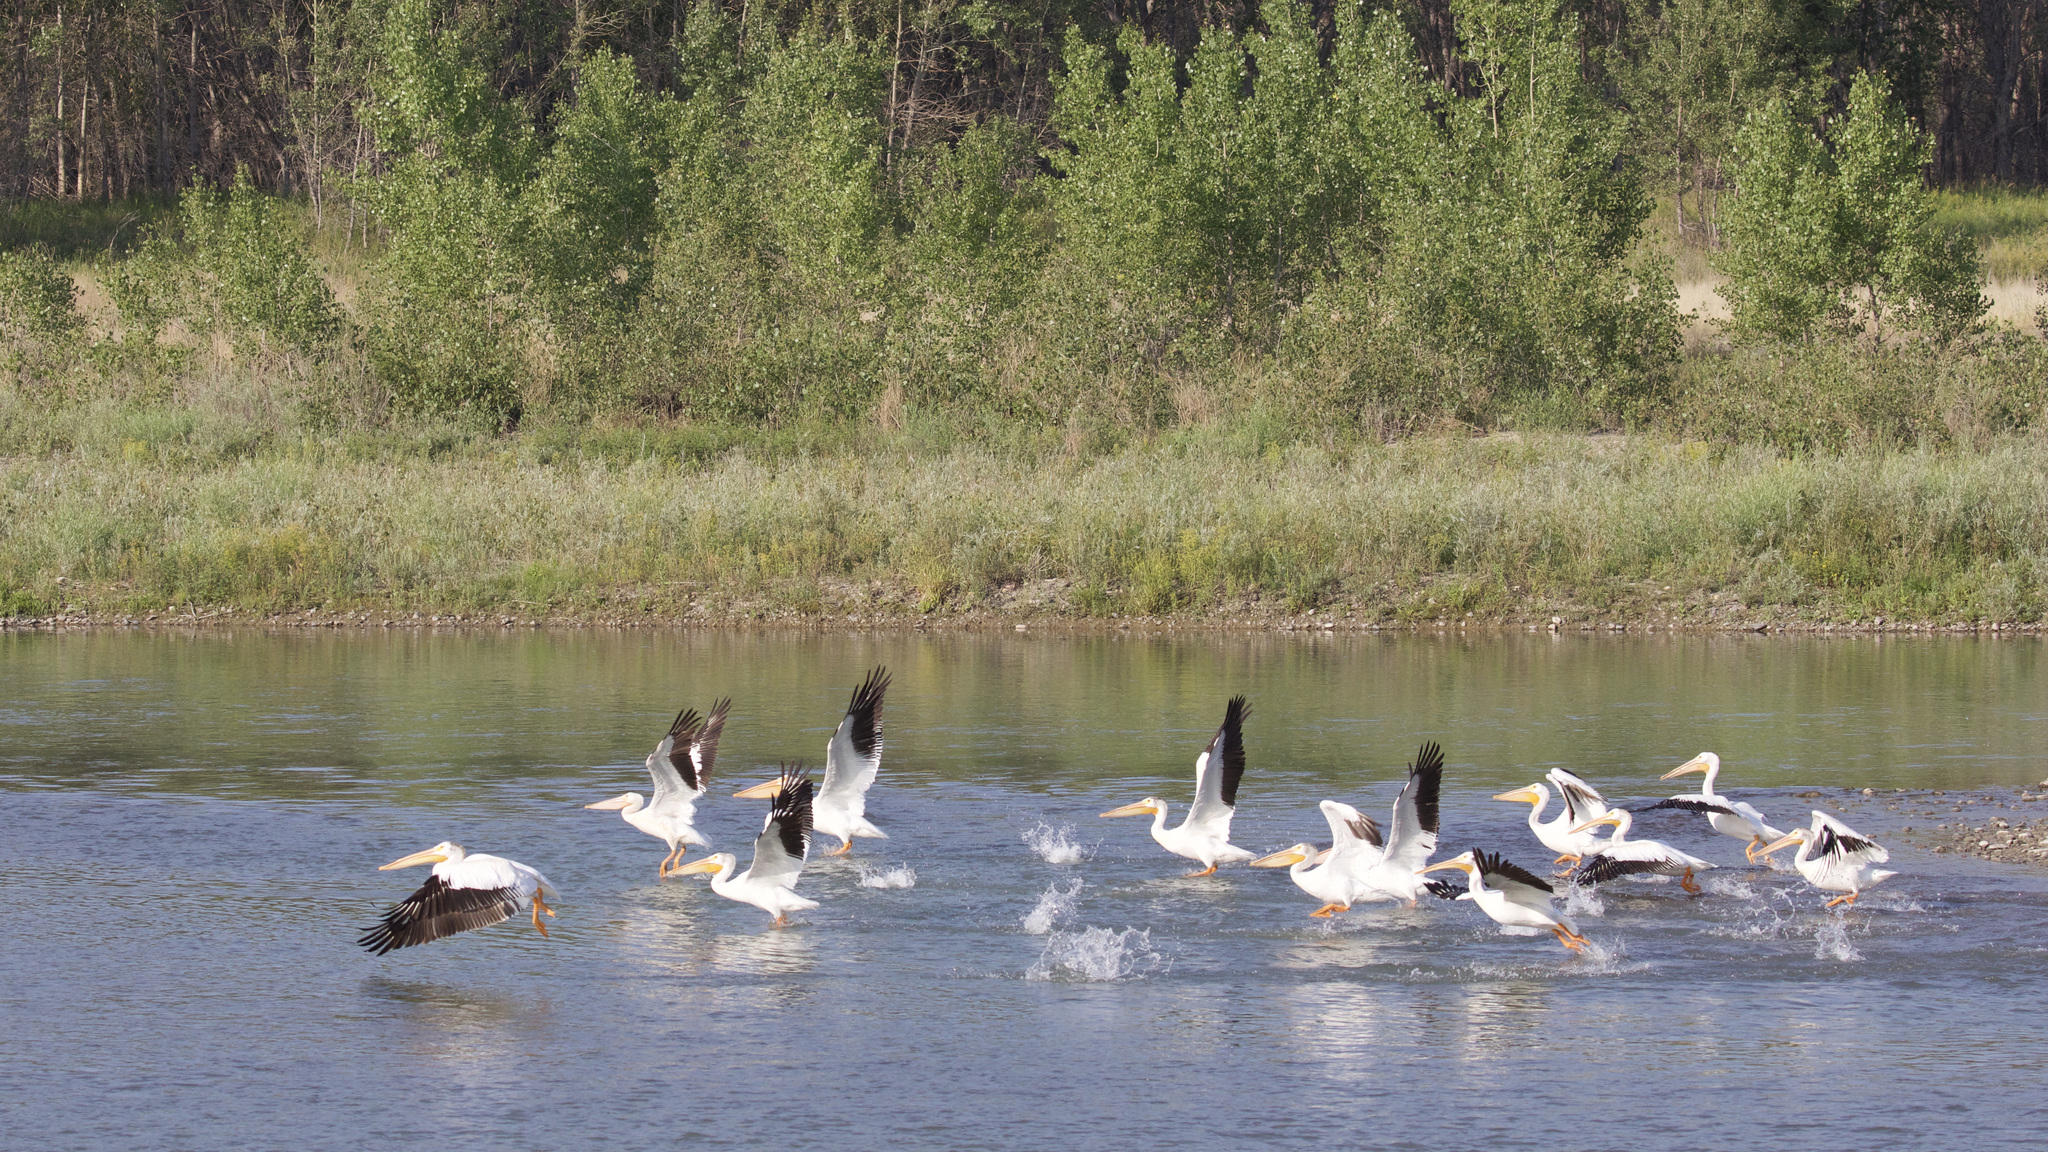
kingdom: Animalia
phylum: Chordata
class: Aves
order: Pelecaniformes
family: Pelecanidae
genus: Pelecanus
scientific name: Pelecanus erythrorhynchos
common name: American white pelican
